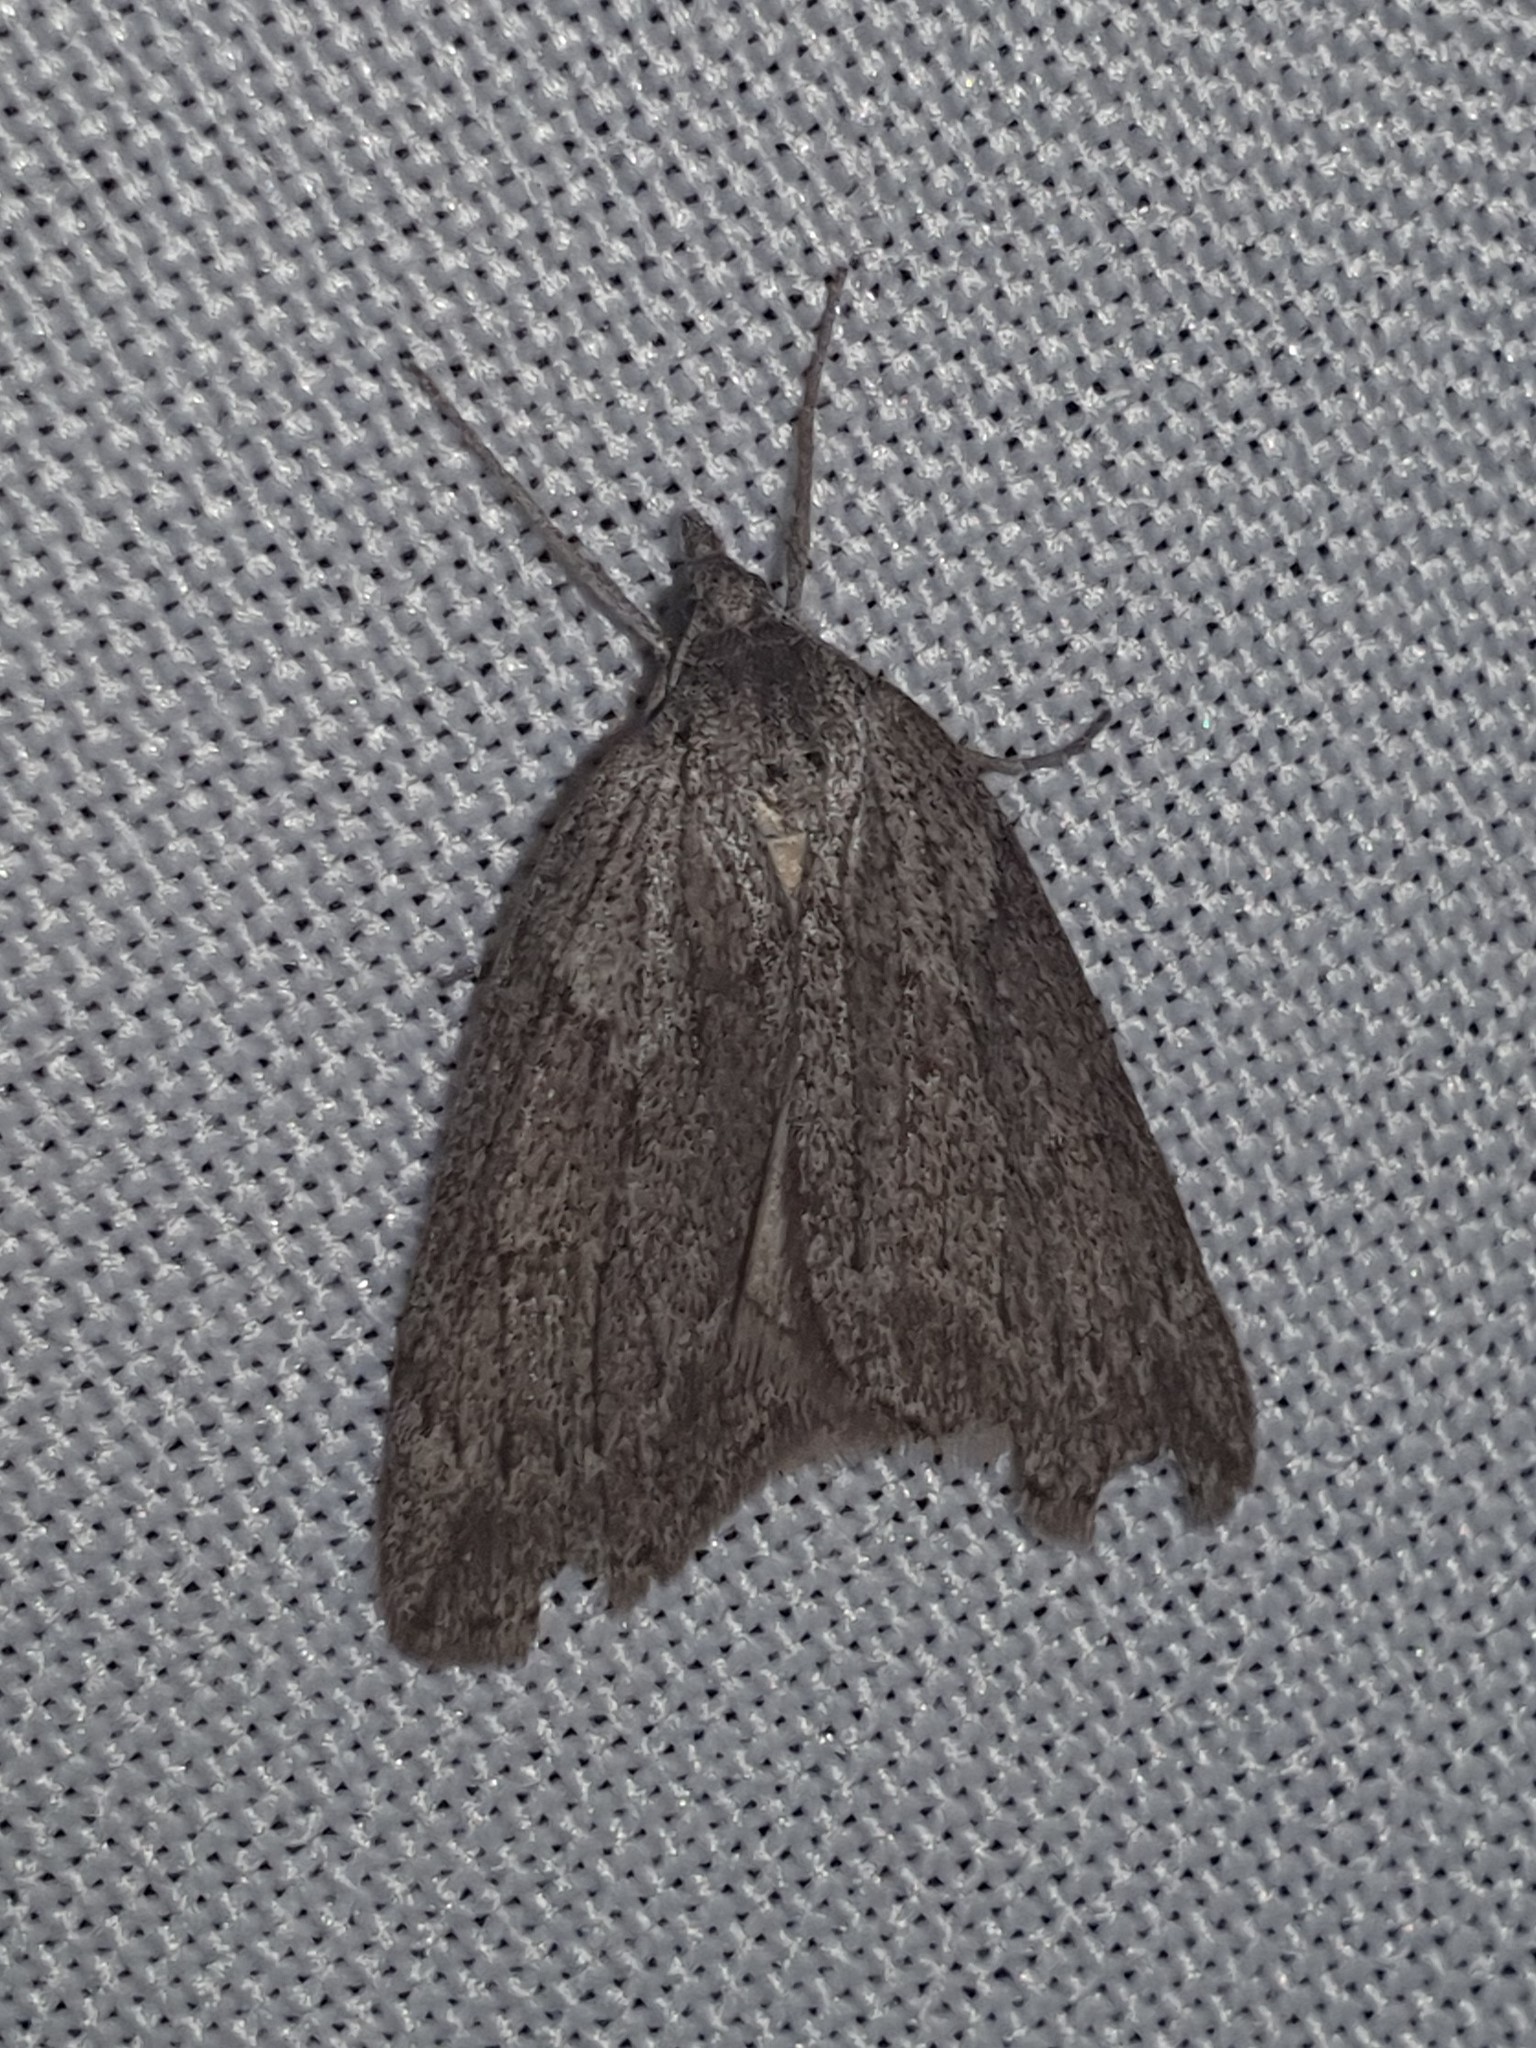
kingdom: Animalia
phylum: Arthropoda
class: Insecta
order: Lepidoptera
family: Geometridae
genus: Pachycnemia
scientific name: Pachycnemia hippocastanaria
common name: Horse chestnut
